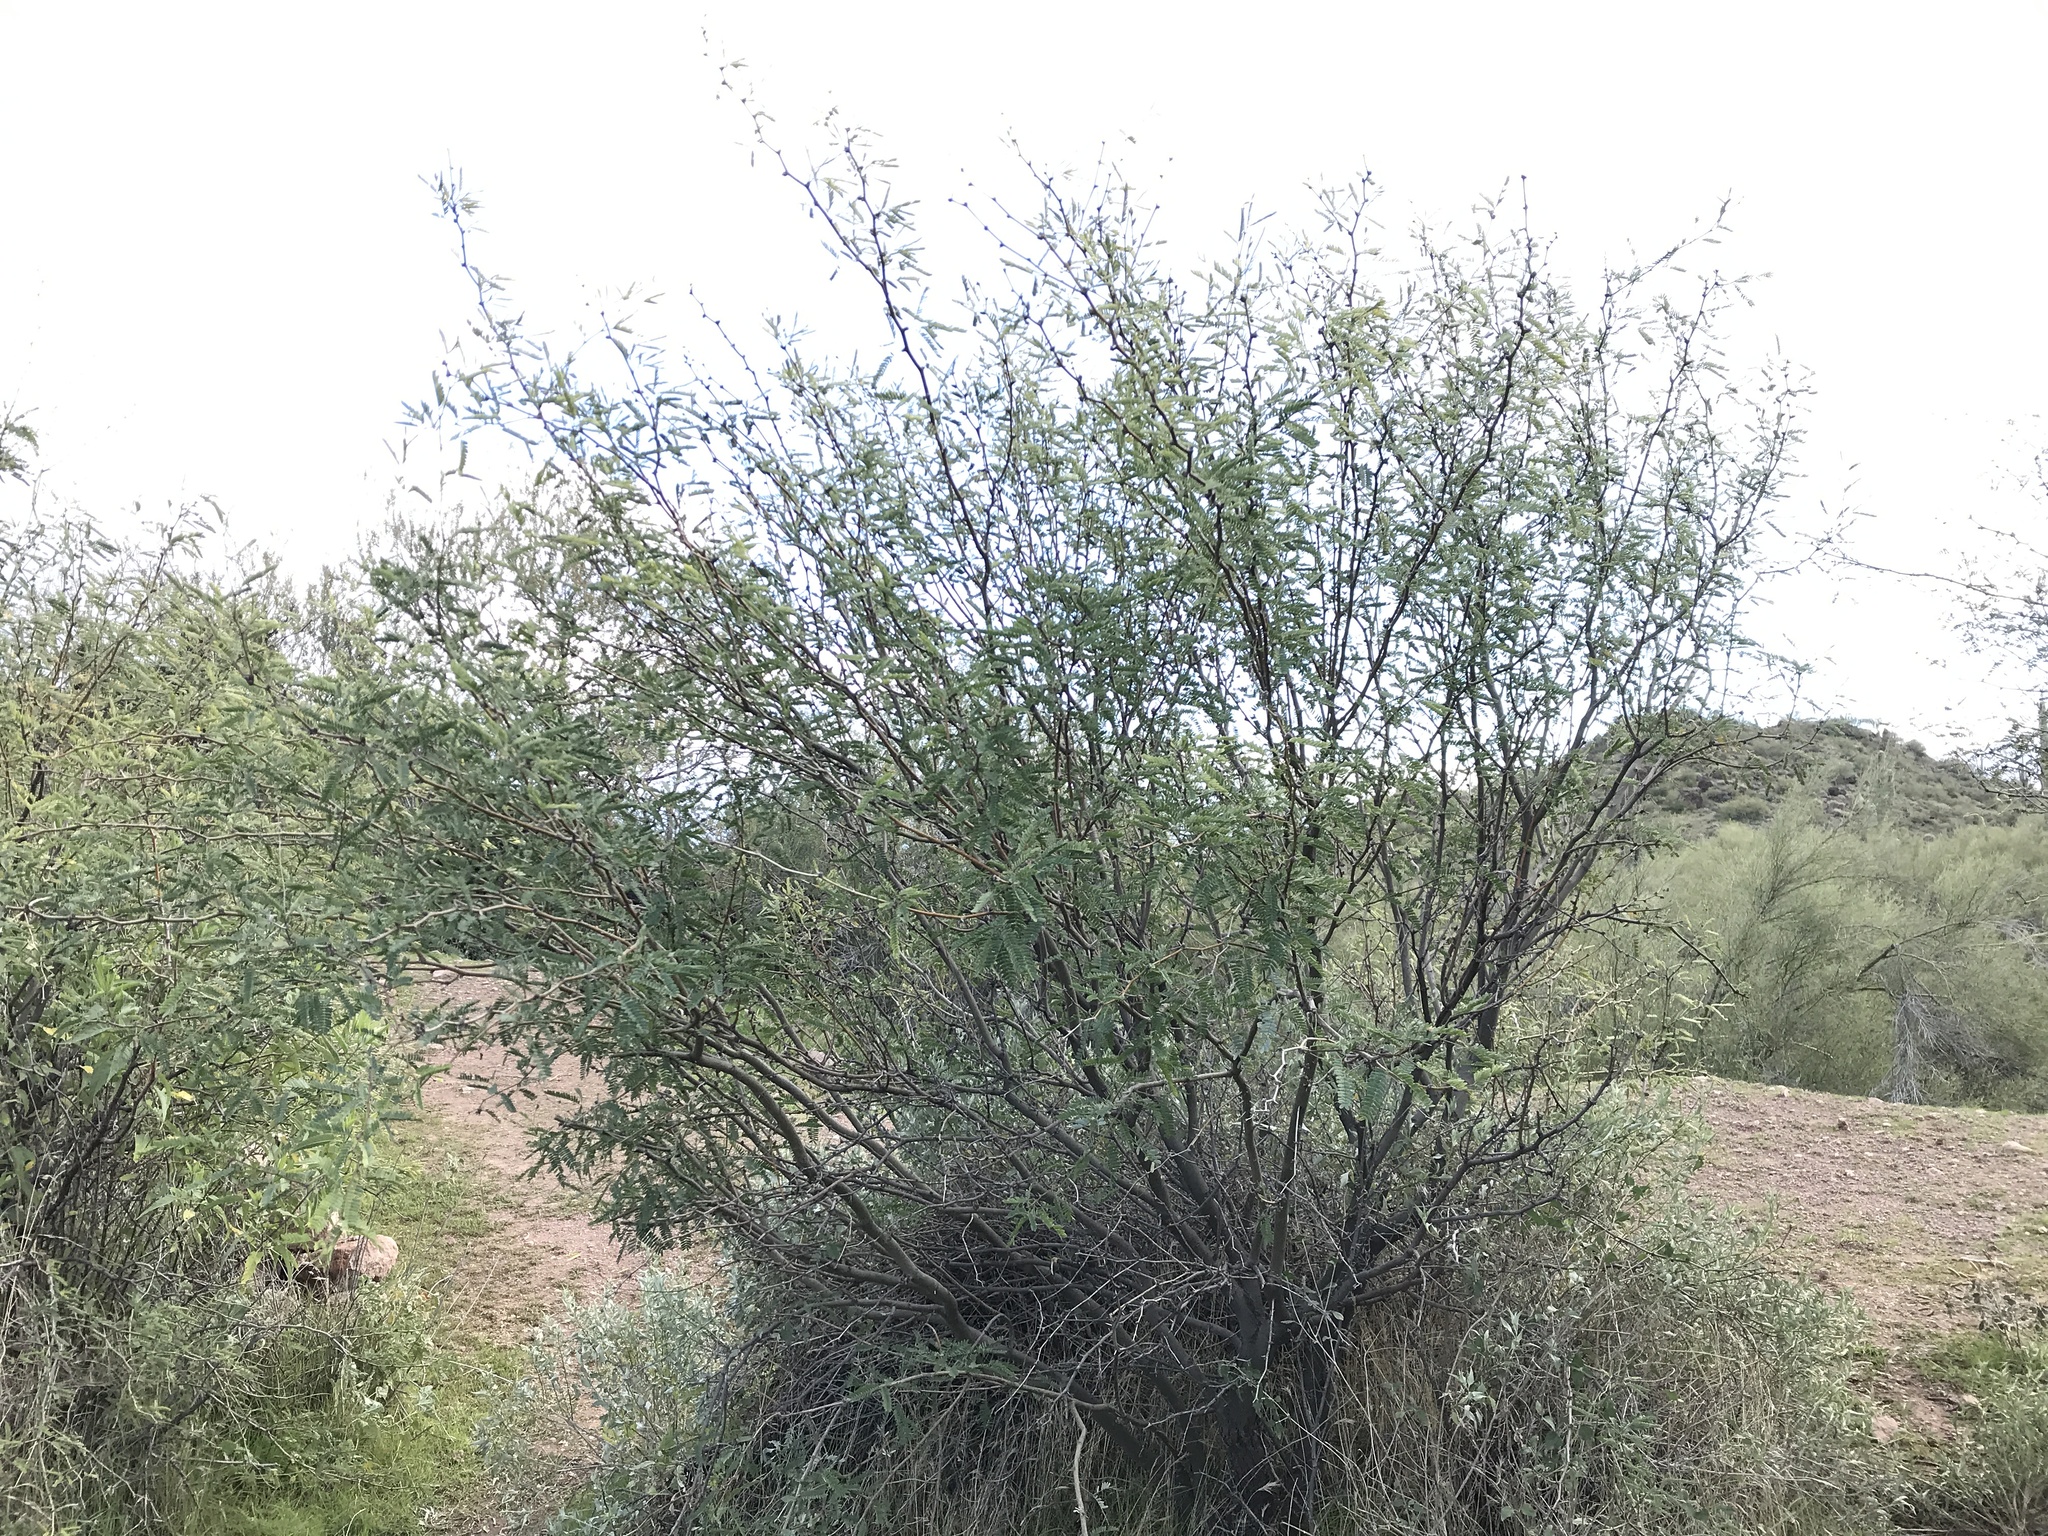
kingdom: Plantae
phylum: Tracheophyta
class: Magnoliopsida
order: Fabales
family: Fabaceae
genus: Prosopis
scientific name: Prosopis velutina
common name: Velvet mesquite
